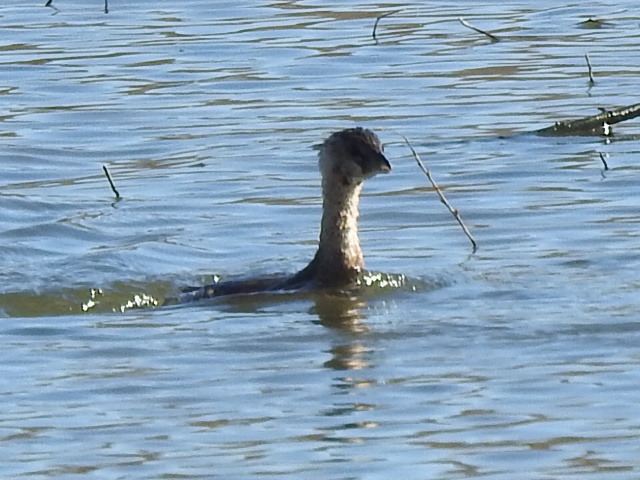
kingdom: Animalia
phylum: Chordata
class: Aves
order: Podicipediformes
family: Podicipedidae
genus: Podilymbus
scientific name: Podilymbus podiceps
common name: Pied-billed grebe
